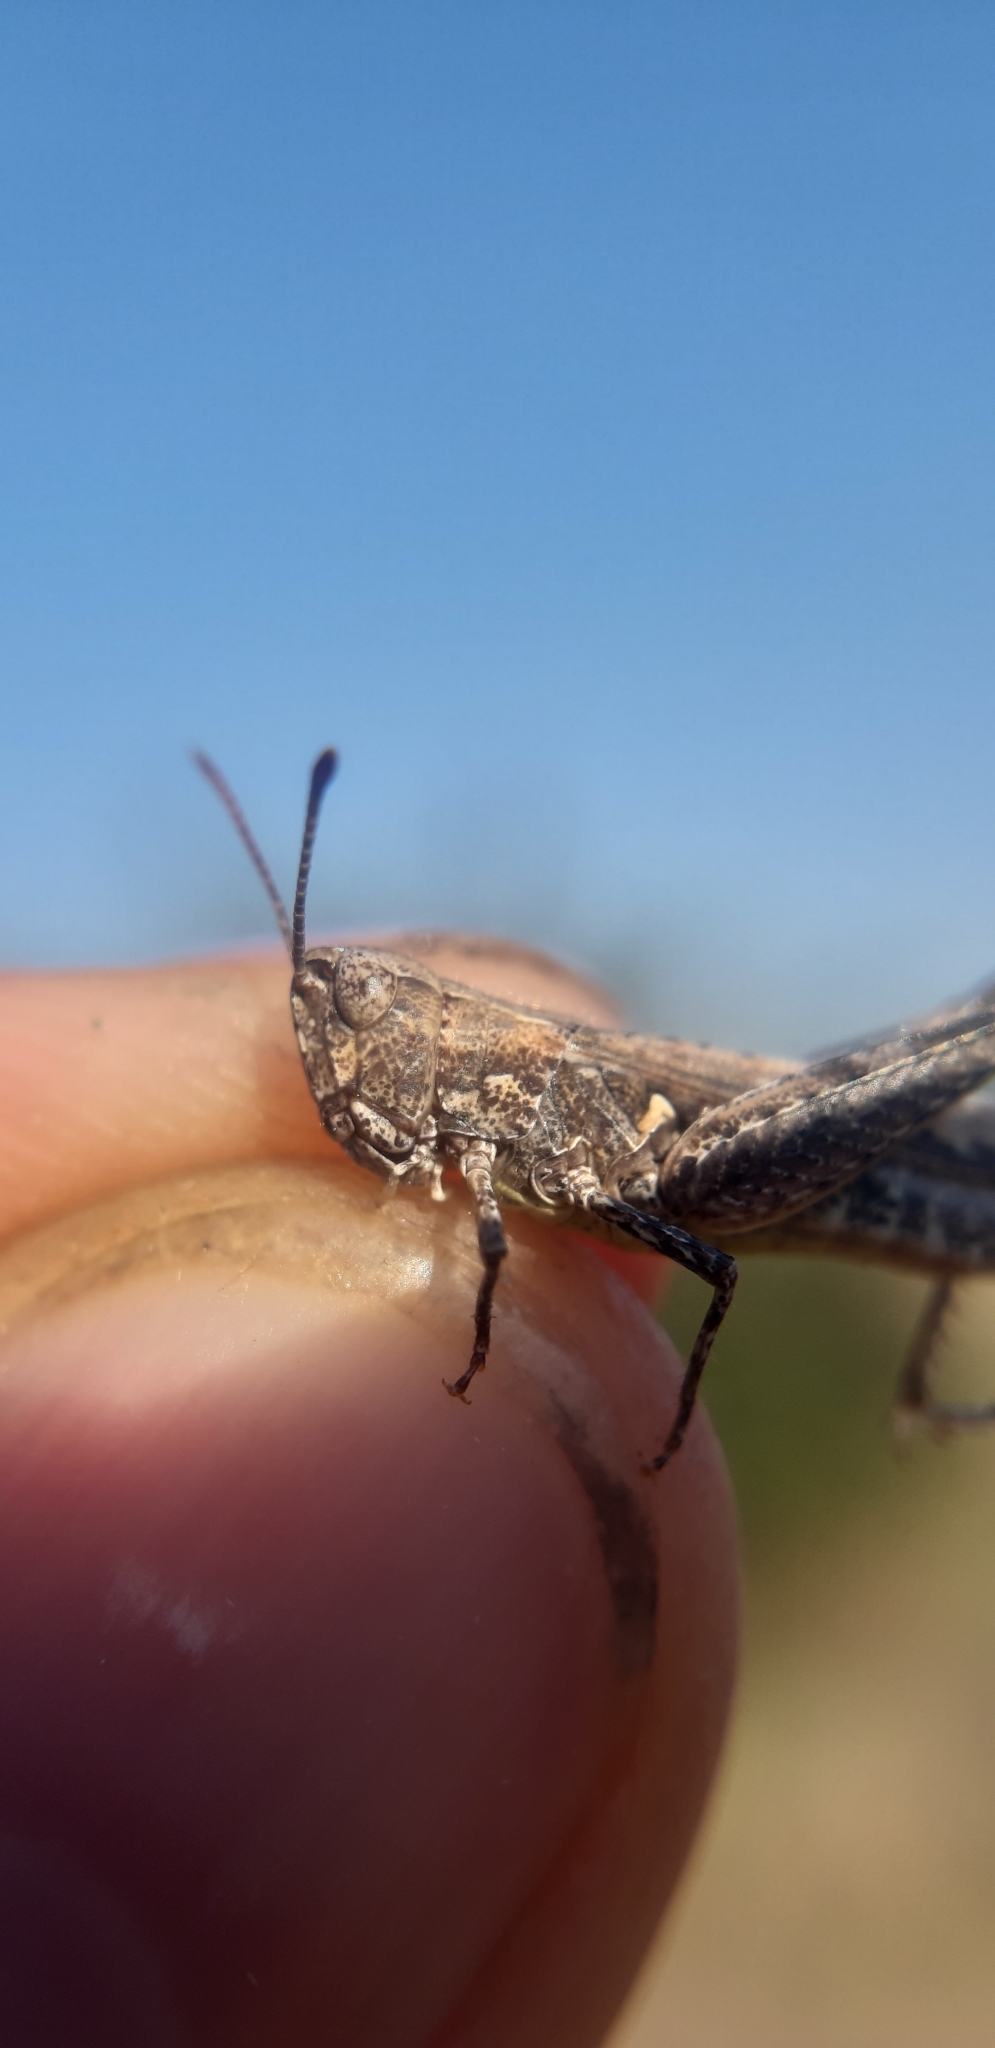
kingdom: Animalia
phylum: Arthropoda
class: Insecta
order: Orthoptera
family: Acrididae
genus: Myrmeleotettix
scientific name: Myrmeleotettix antennatus
